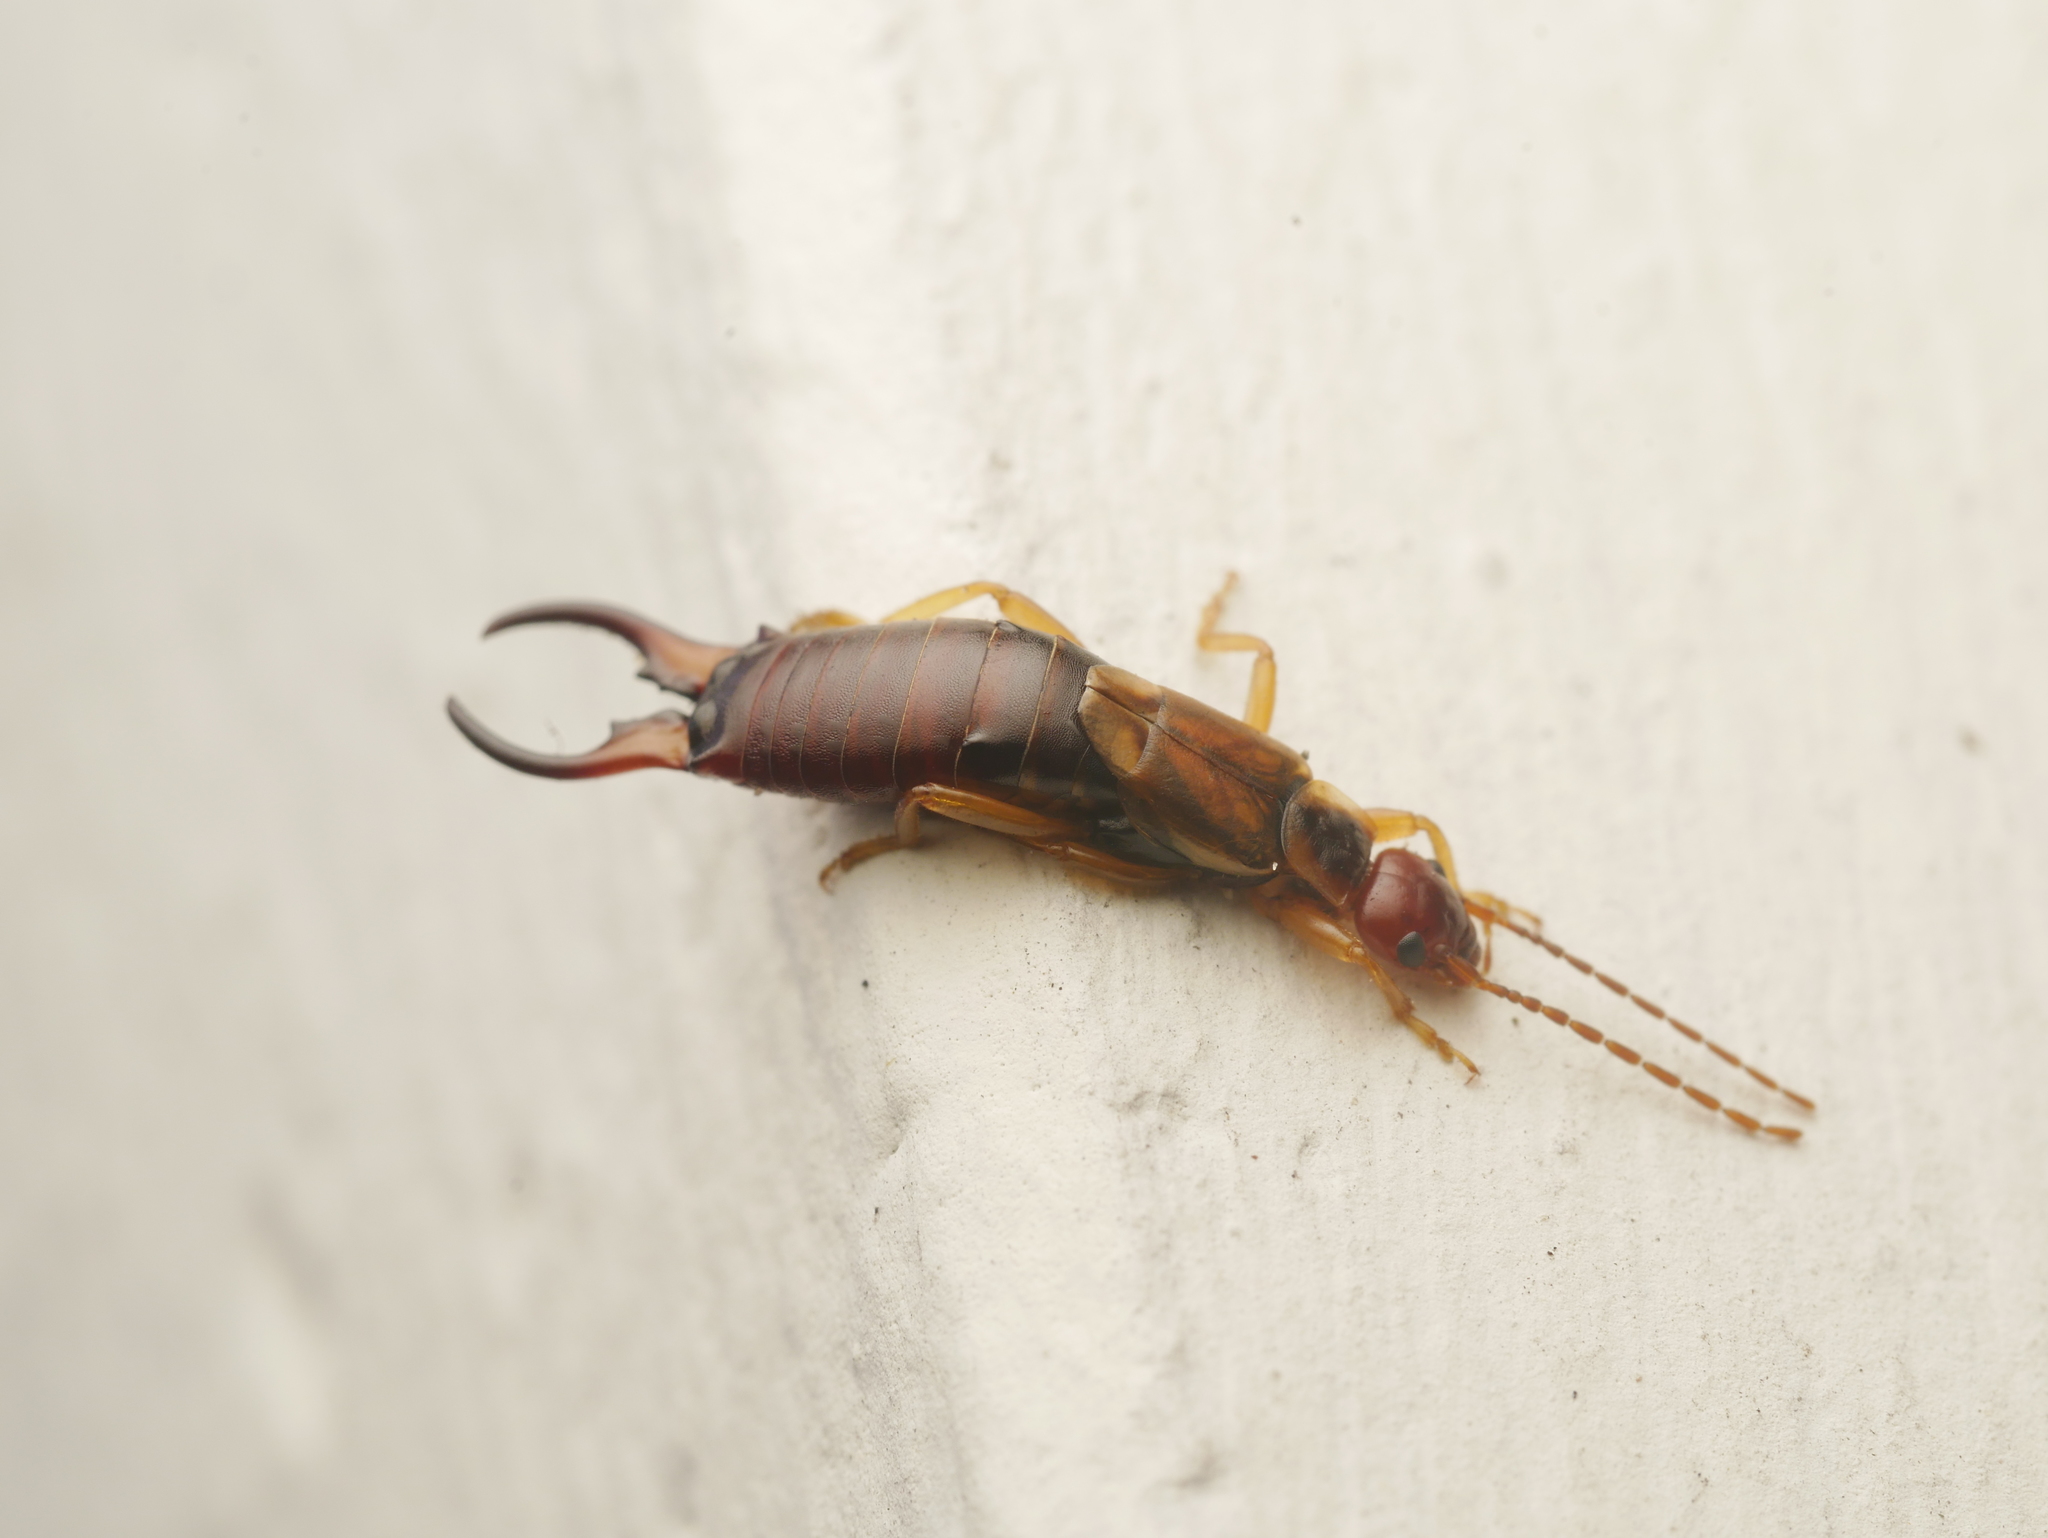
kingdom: Animalia
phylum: Arthropoda
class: Insecta
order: Dermaptera
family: Forficulidae
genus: Forficula
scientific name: Forficula
